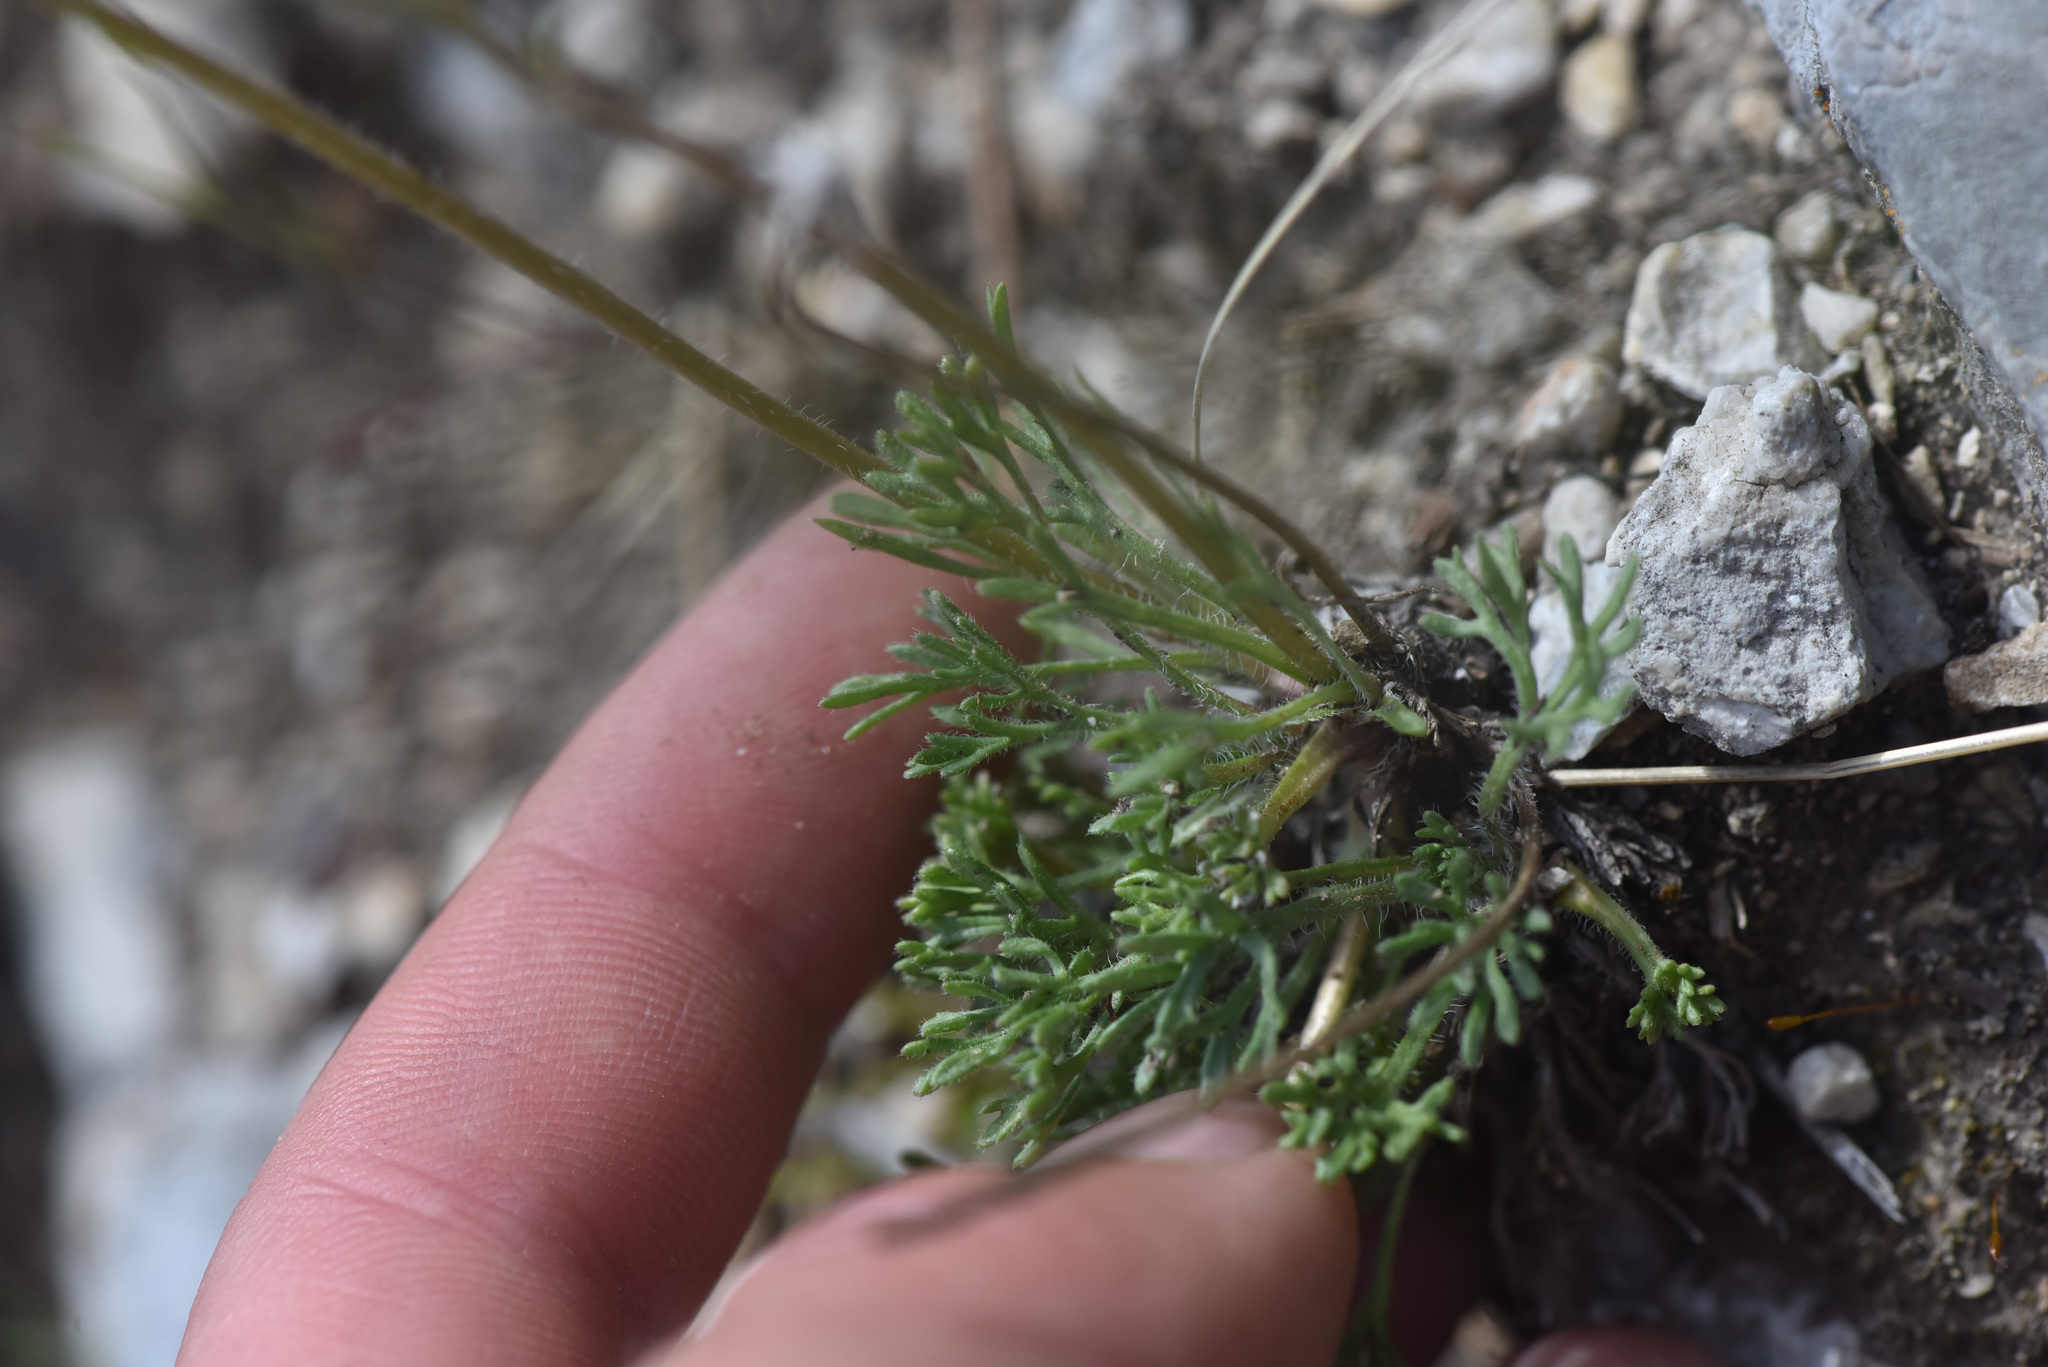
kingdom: Plantae
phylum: Tracheophyta
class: Magnoliopsida
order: Asterales
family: Asteraceae
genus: Erigeron
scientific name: Erigeron compositus
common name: Dwarf mountain fleabane
